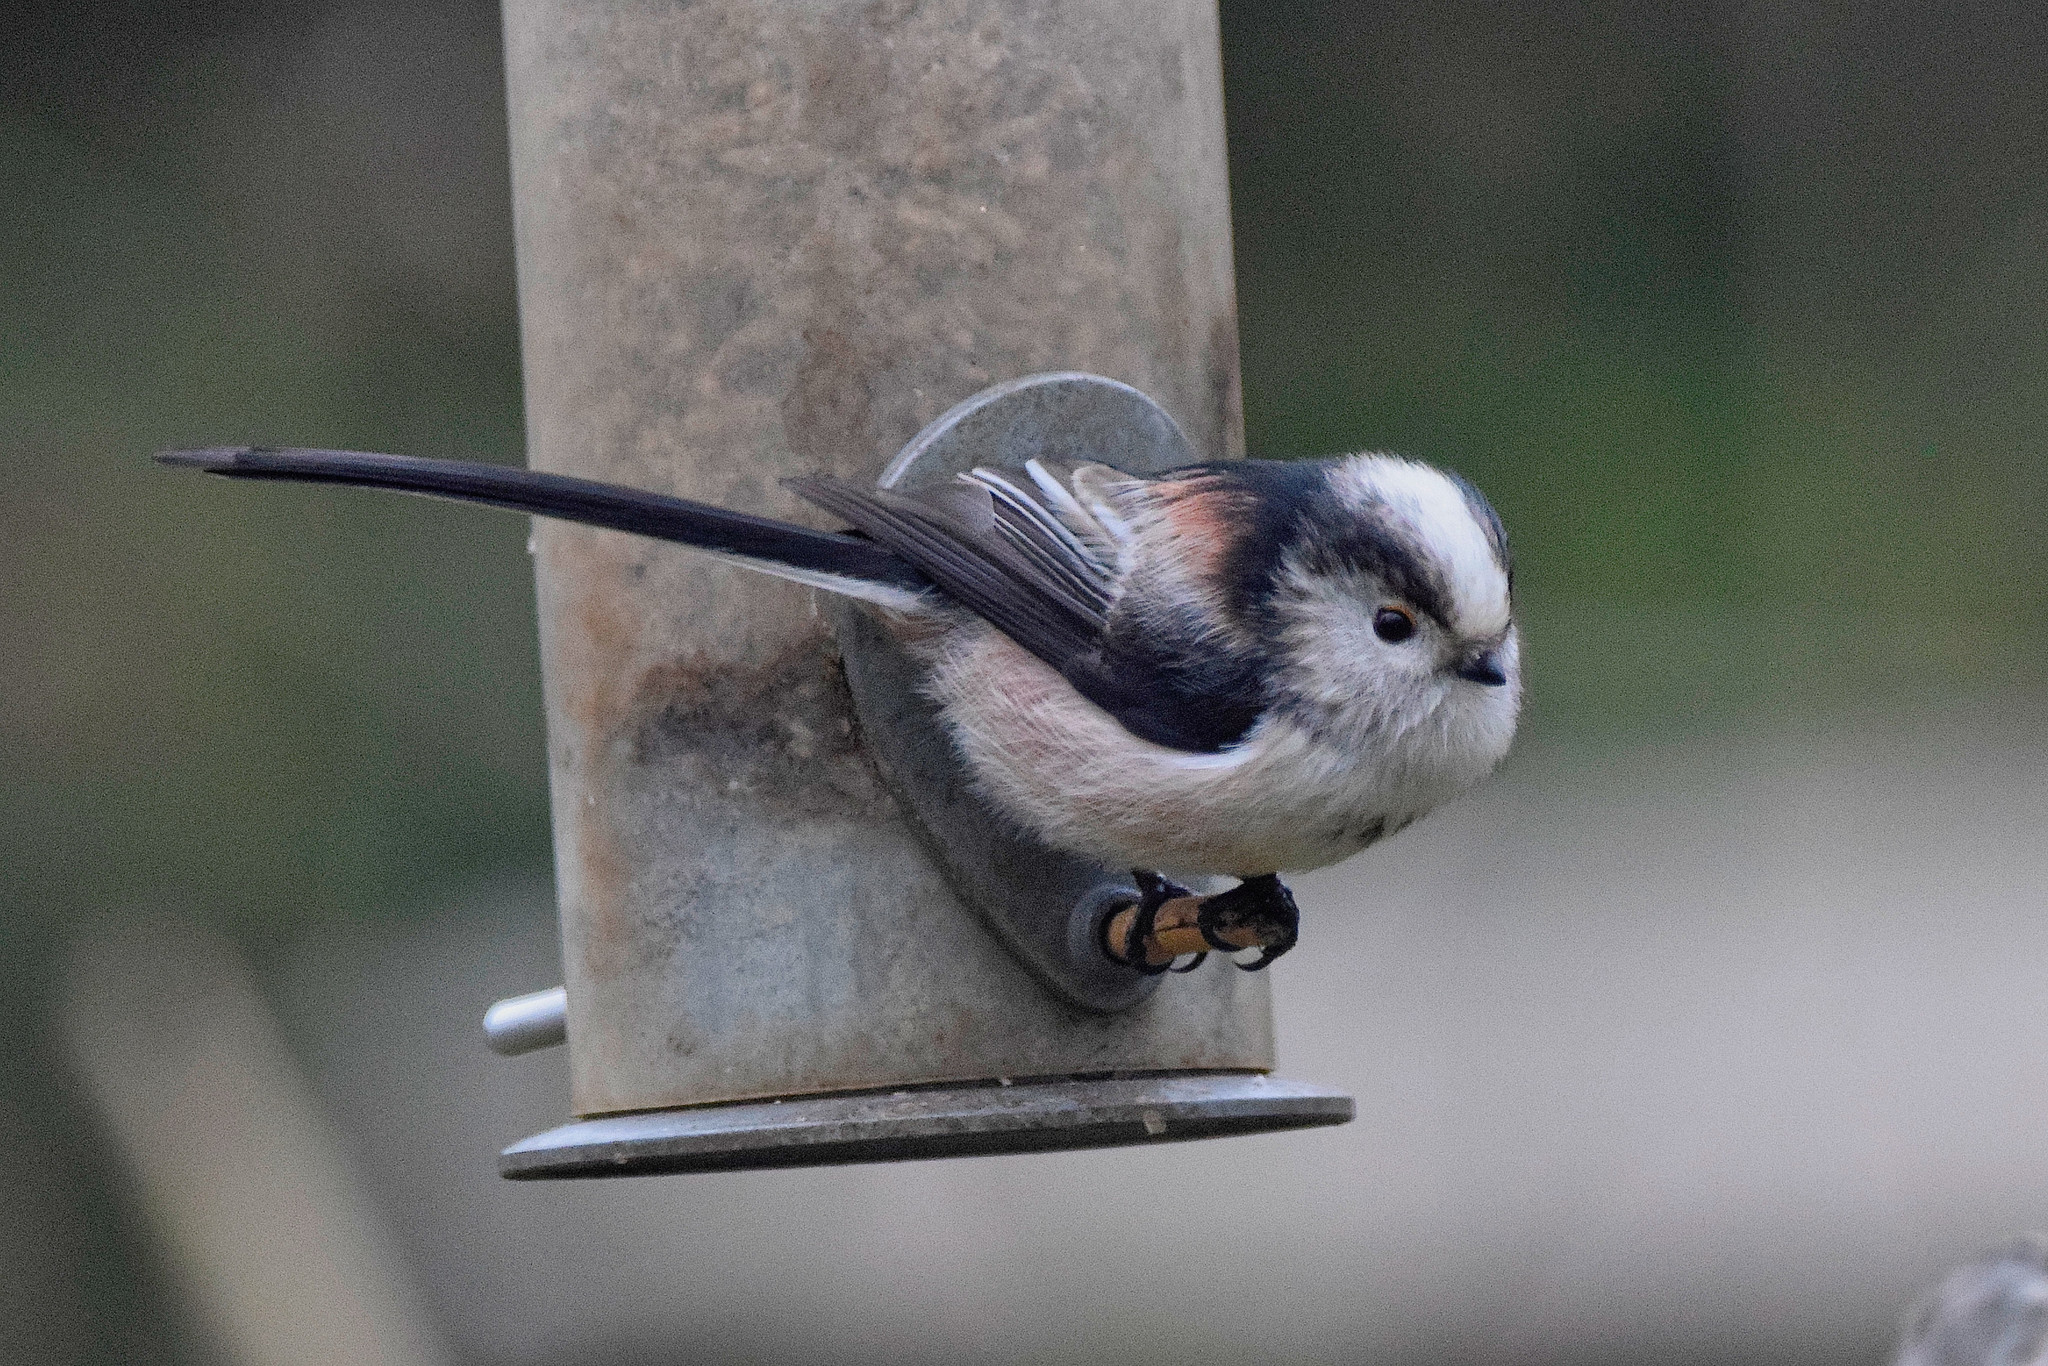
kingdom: Animalia
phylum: Chordata
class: Aves
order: Passeriformes
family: Aegithalidae
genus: Aegithalos
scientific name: Aegithalos caudatus
